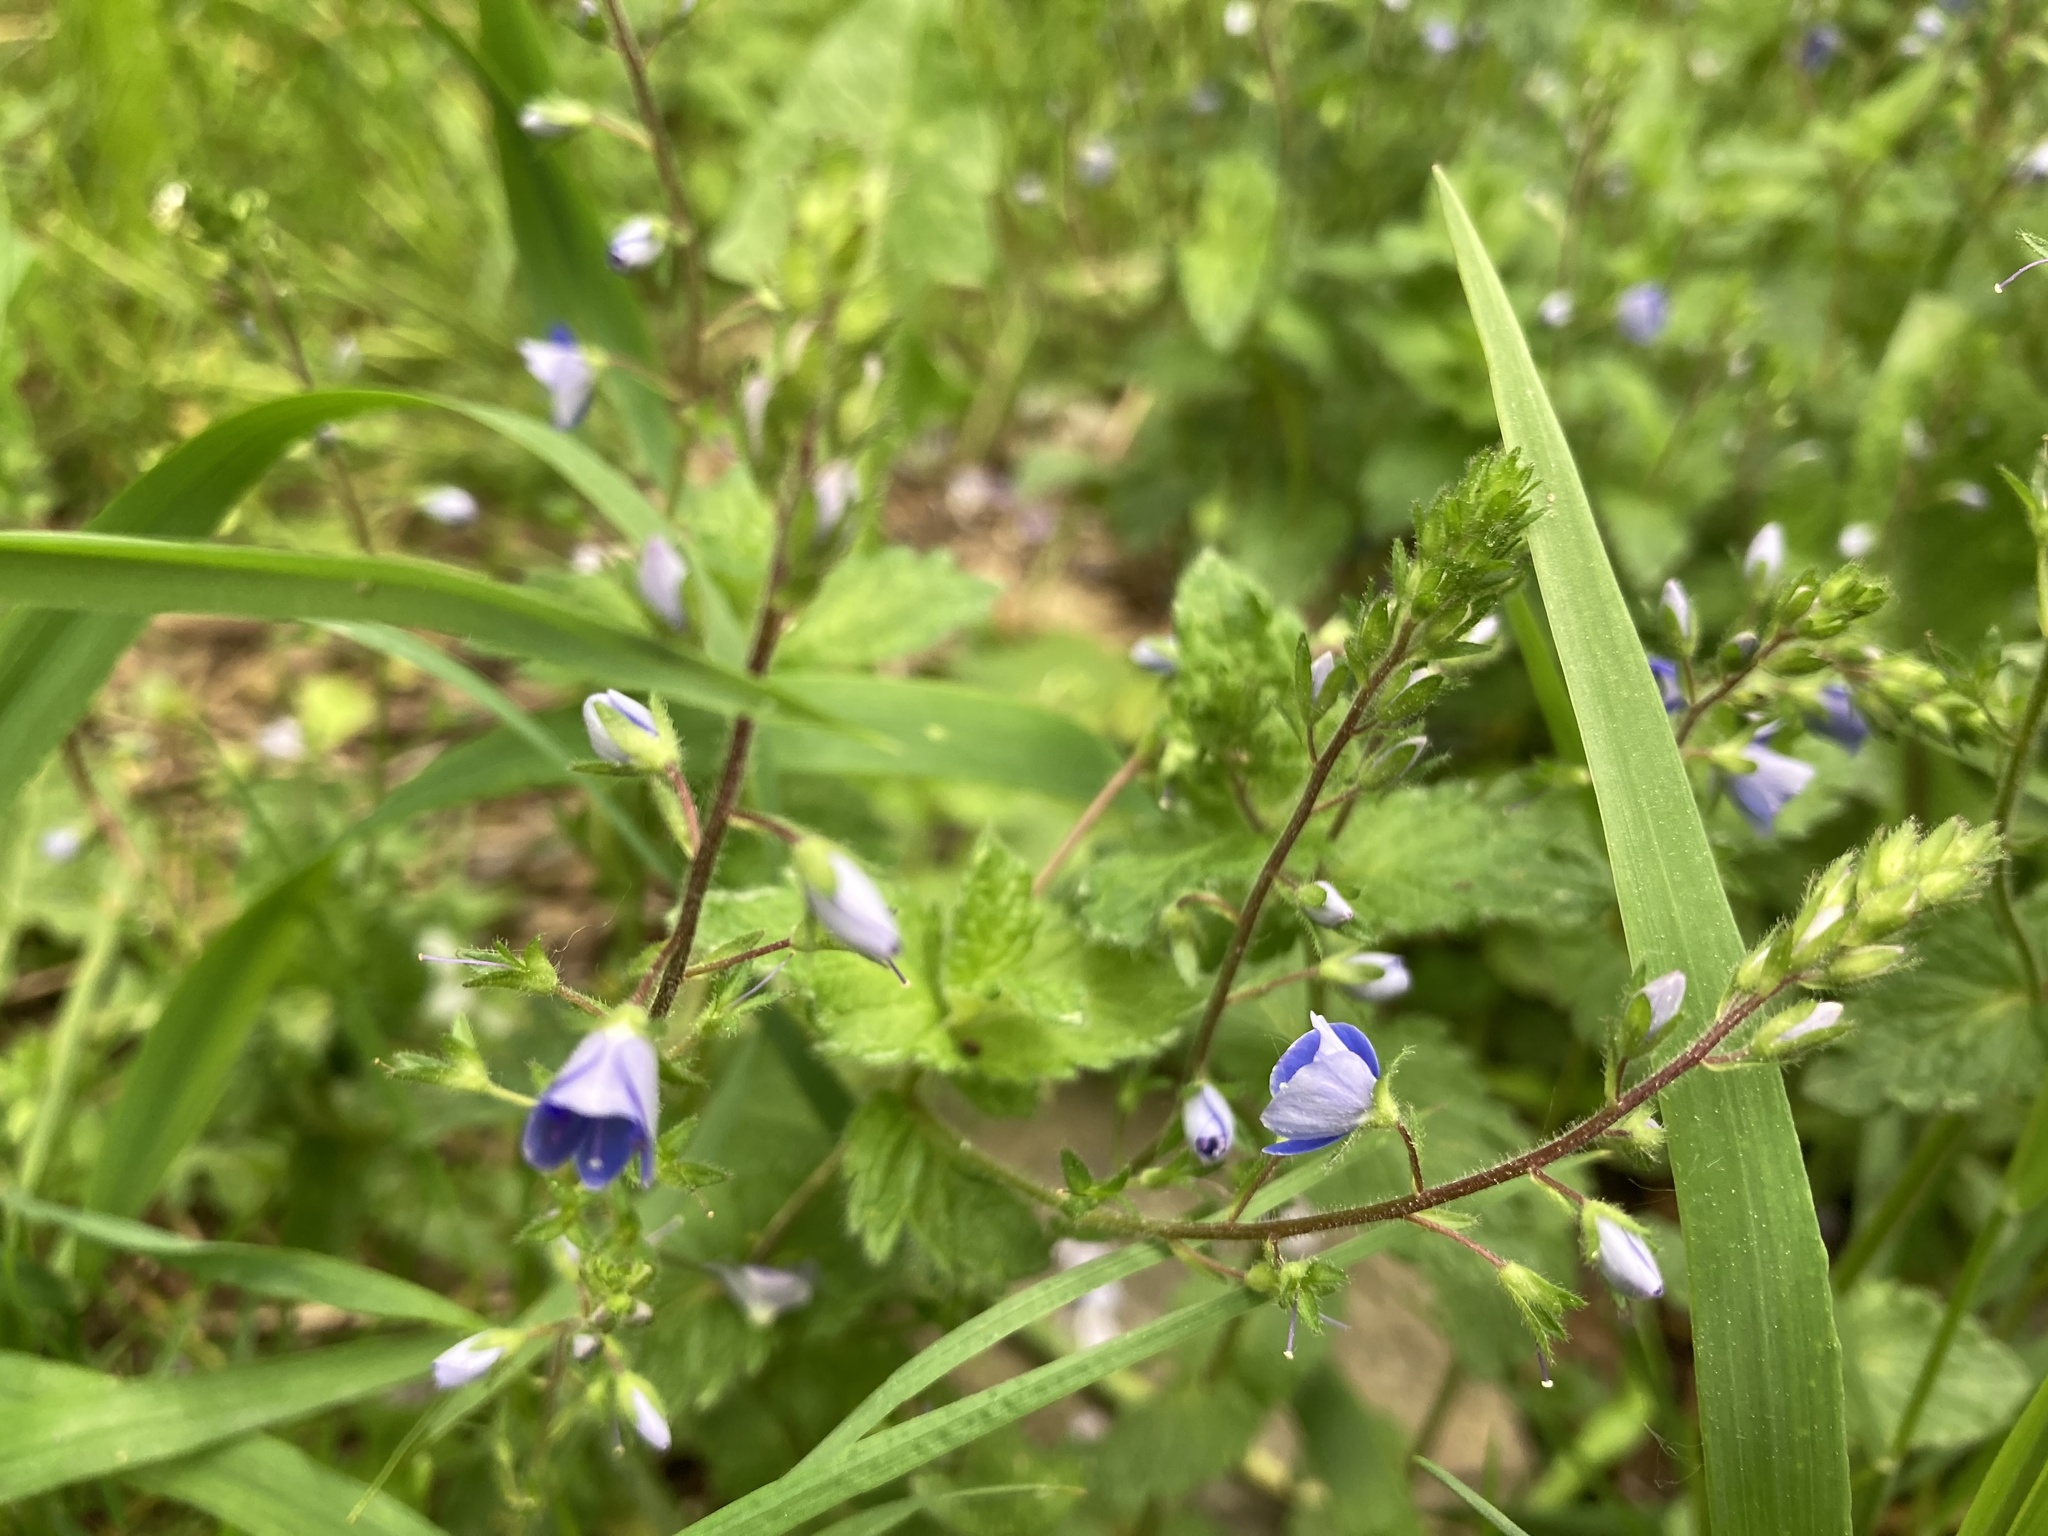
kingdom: Plantae
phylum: Tracheophyta
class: Magnoliopsida
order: Lamiales
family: Plantaginaceae
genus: Veronica
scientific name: Veronica chamaedrys
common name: Germander speedwell
